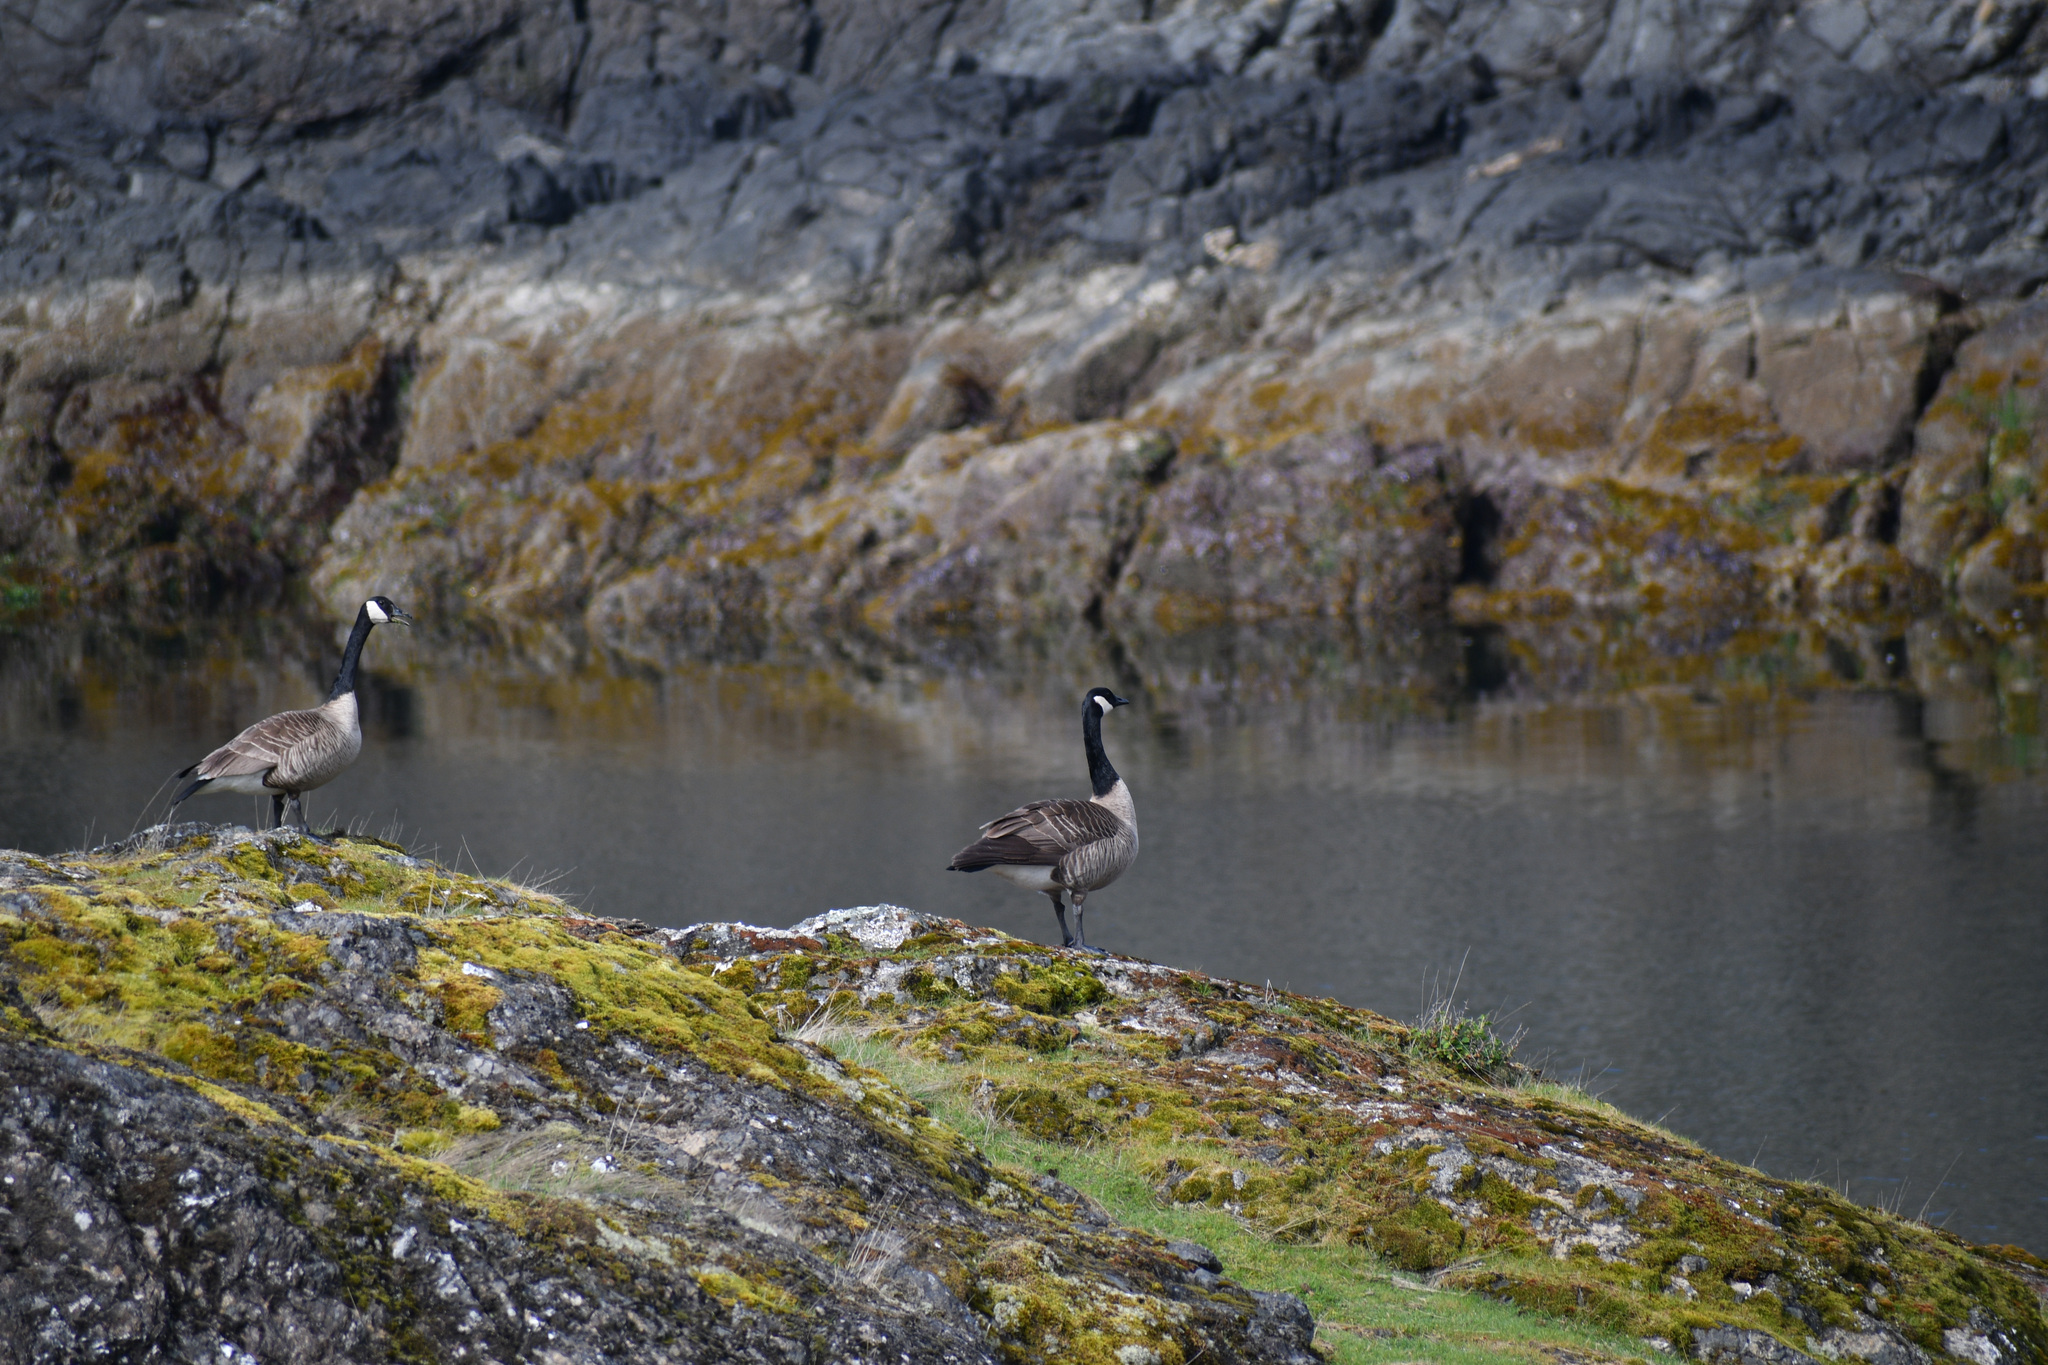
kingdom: Animalia
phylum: Chordata
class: Aves
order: Anseriformes
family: Anatidae
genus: Branta
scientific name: Branta canadensis
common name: Canada goose
